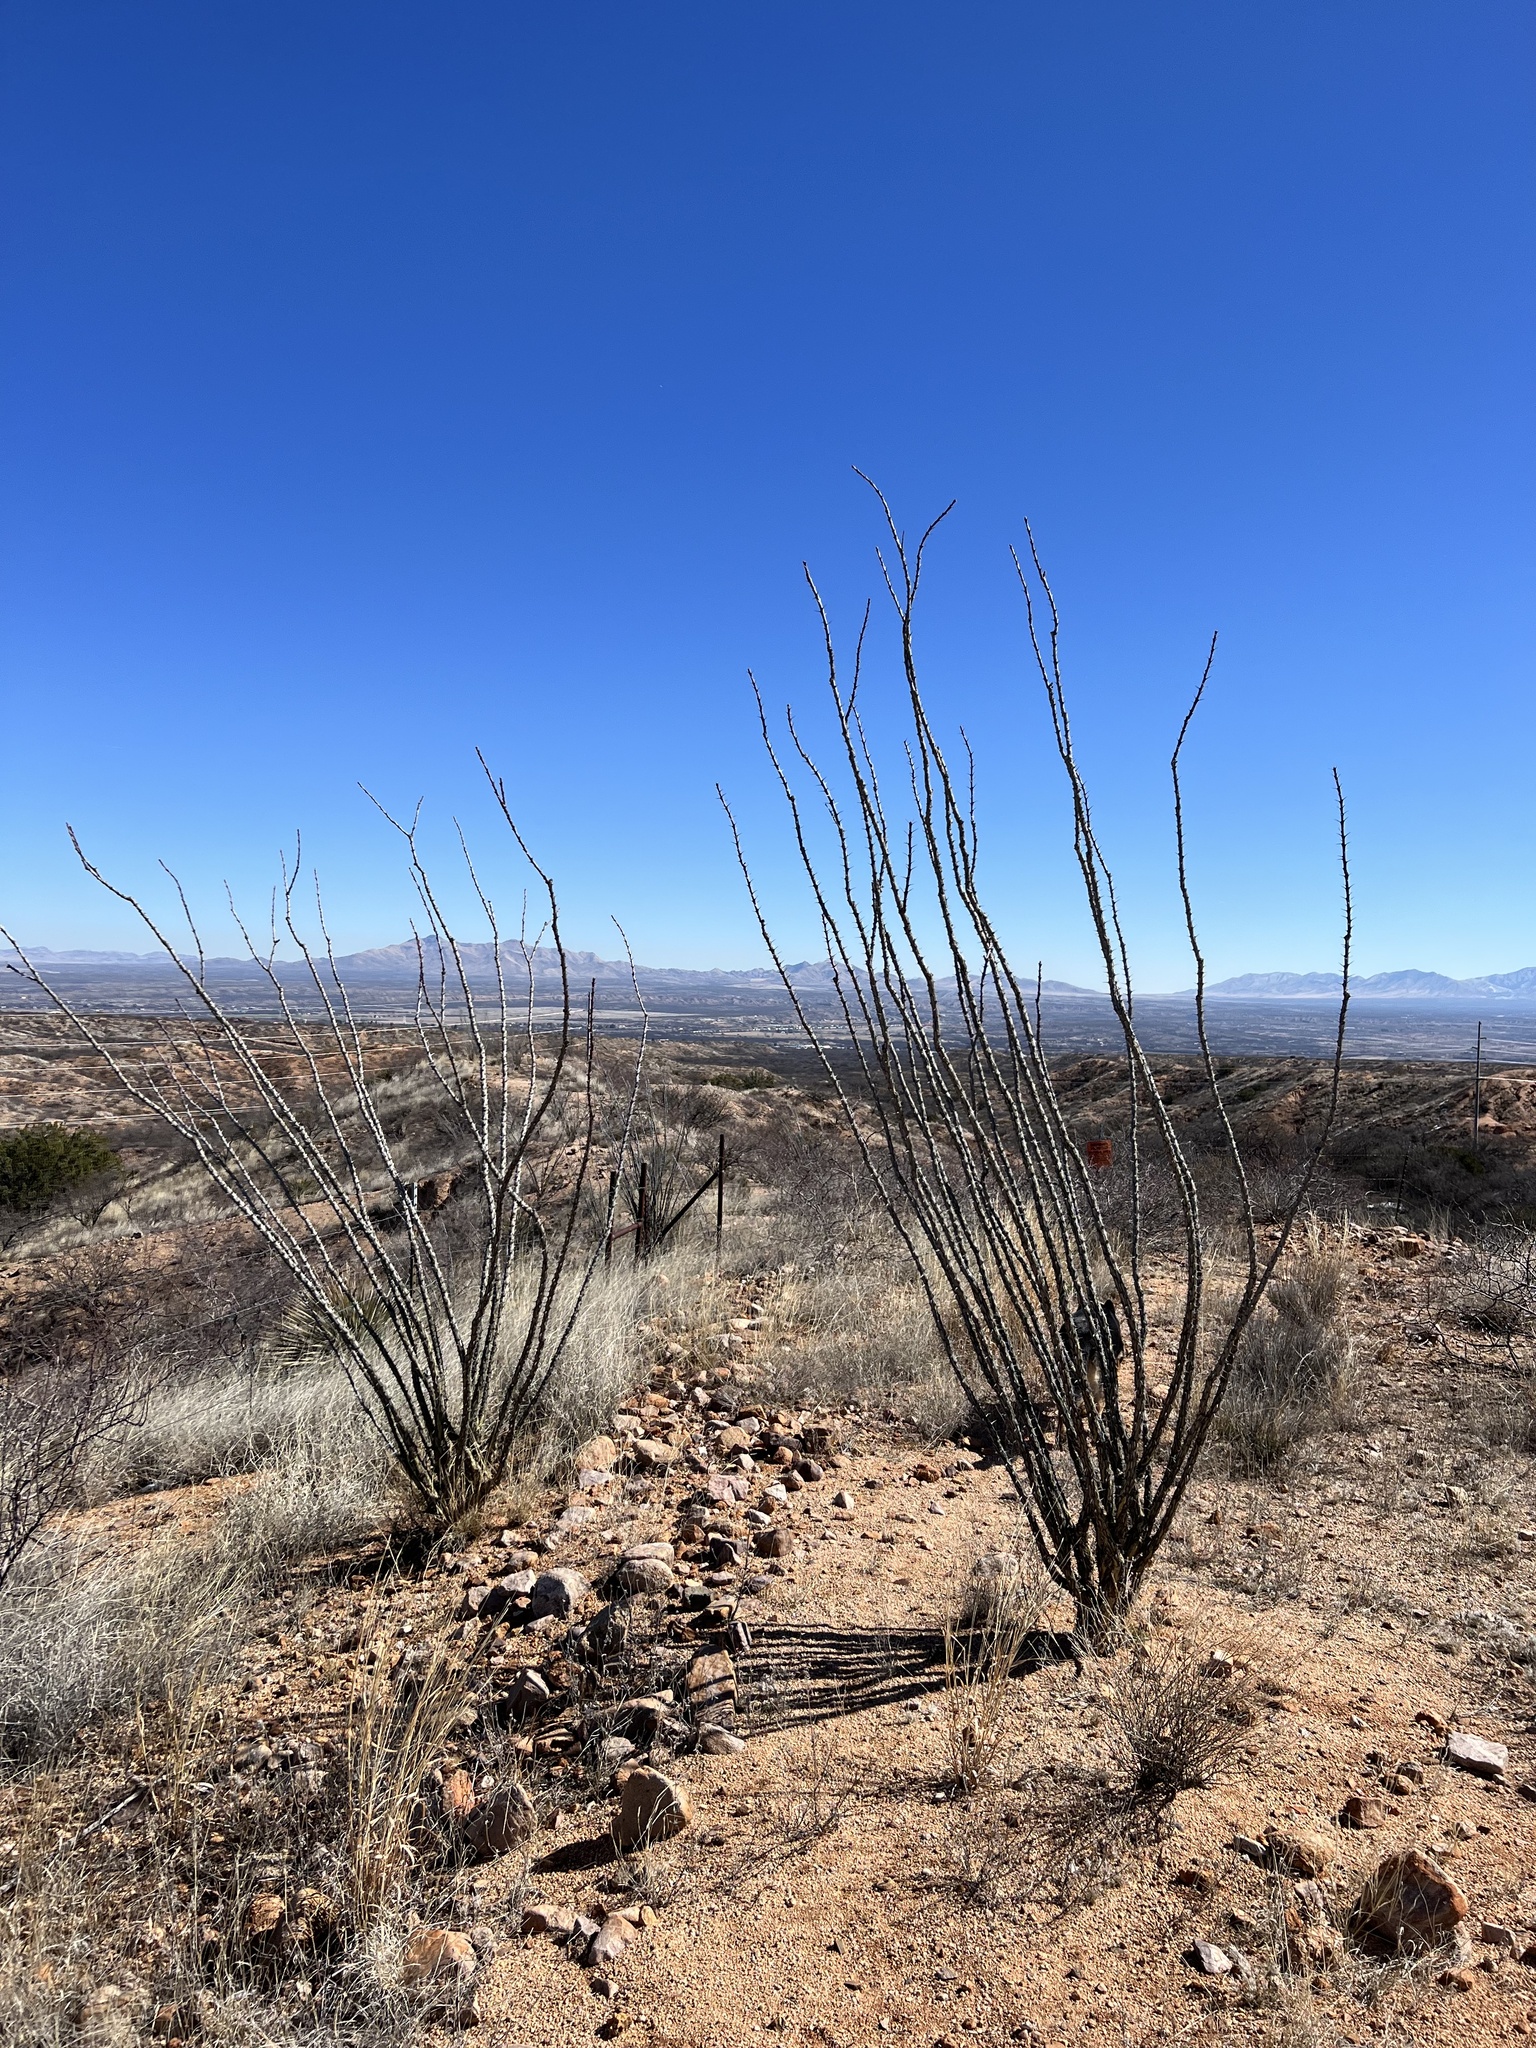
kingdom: Plantae
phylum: Tracheophyta
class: Magnoliopsida
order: Ericales
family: Fouquieriaceae
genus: Fouquieria
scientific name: Fouquieria splendens
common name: Vine-cactus
